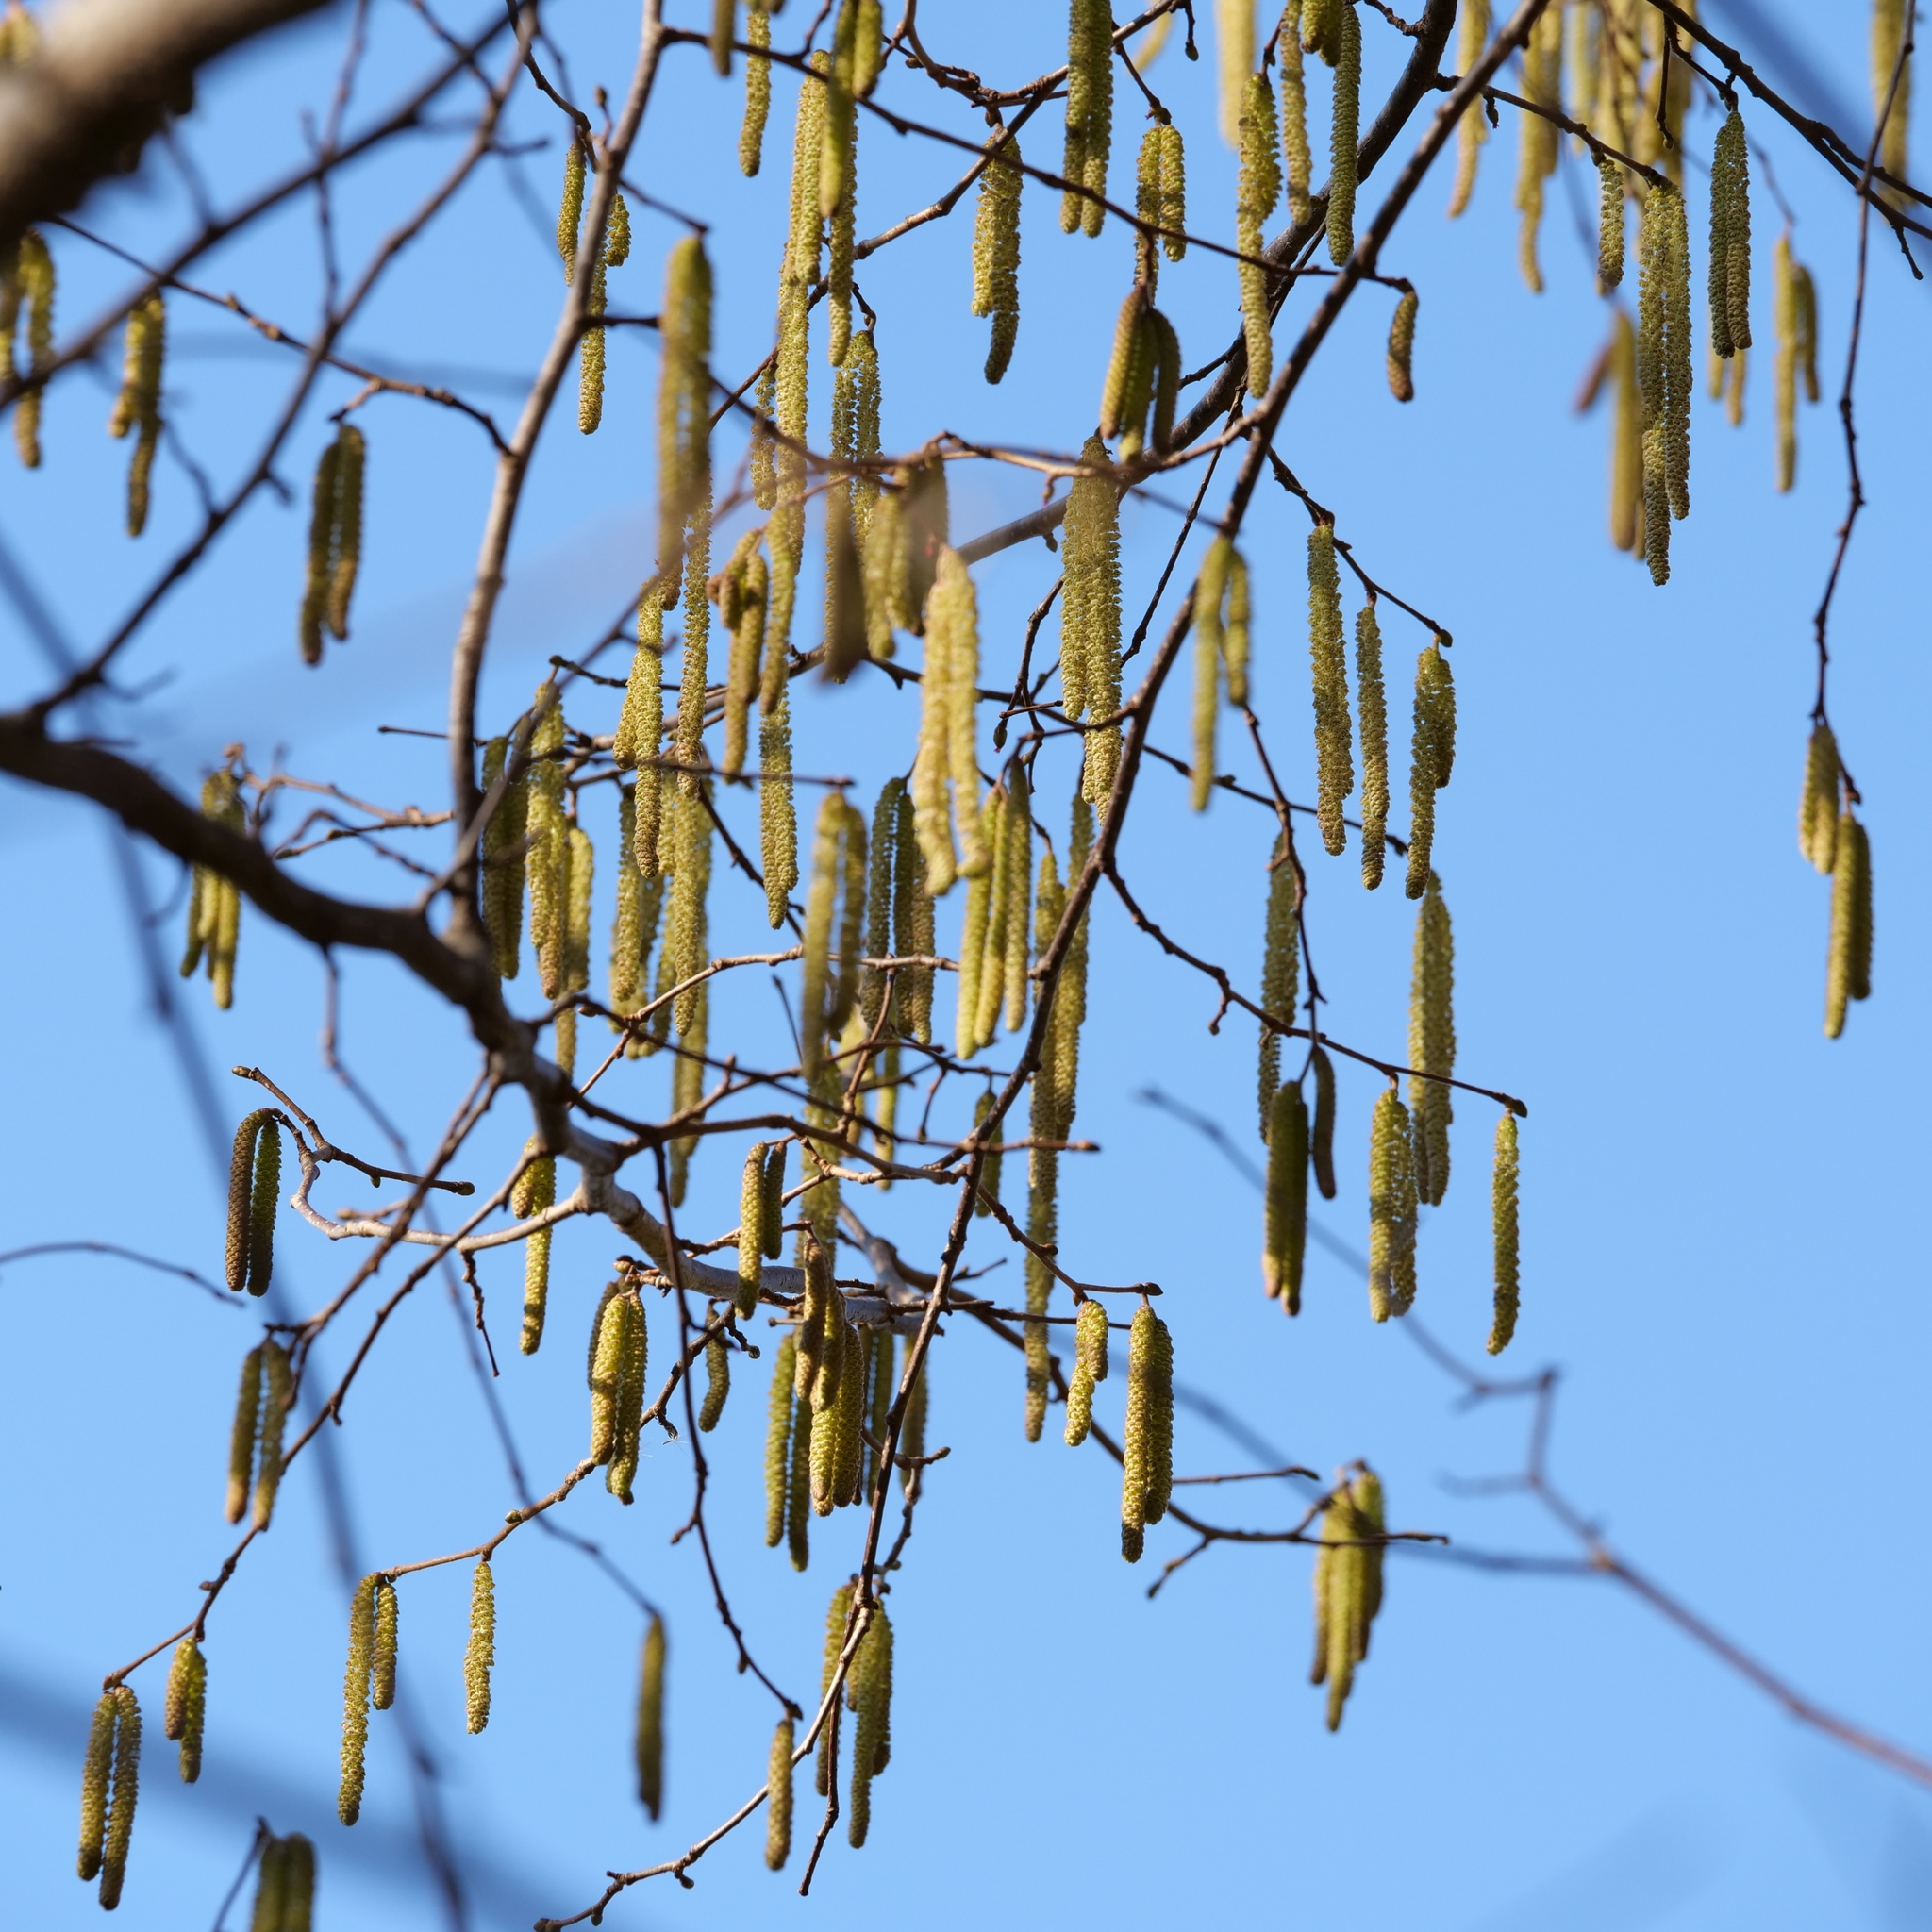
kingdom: Plantae
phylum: Tracheophyta
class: Magnoliopsida
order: Fagales
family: Betulaceae
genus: Corylus
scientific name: Corylus avellana
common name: European hazel
